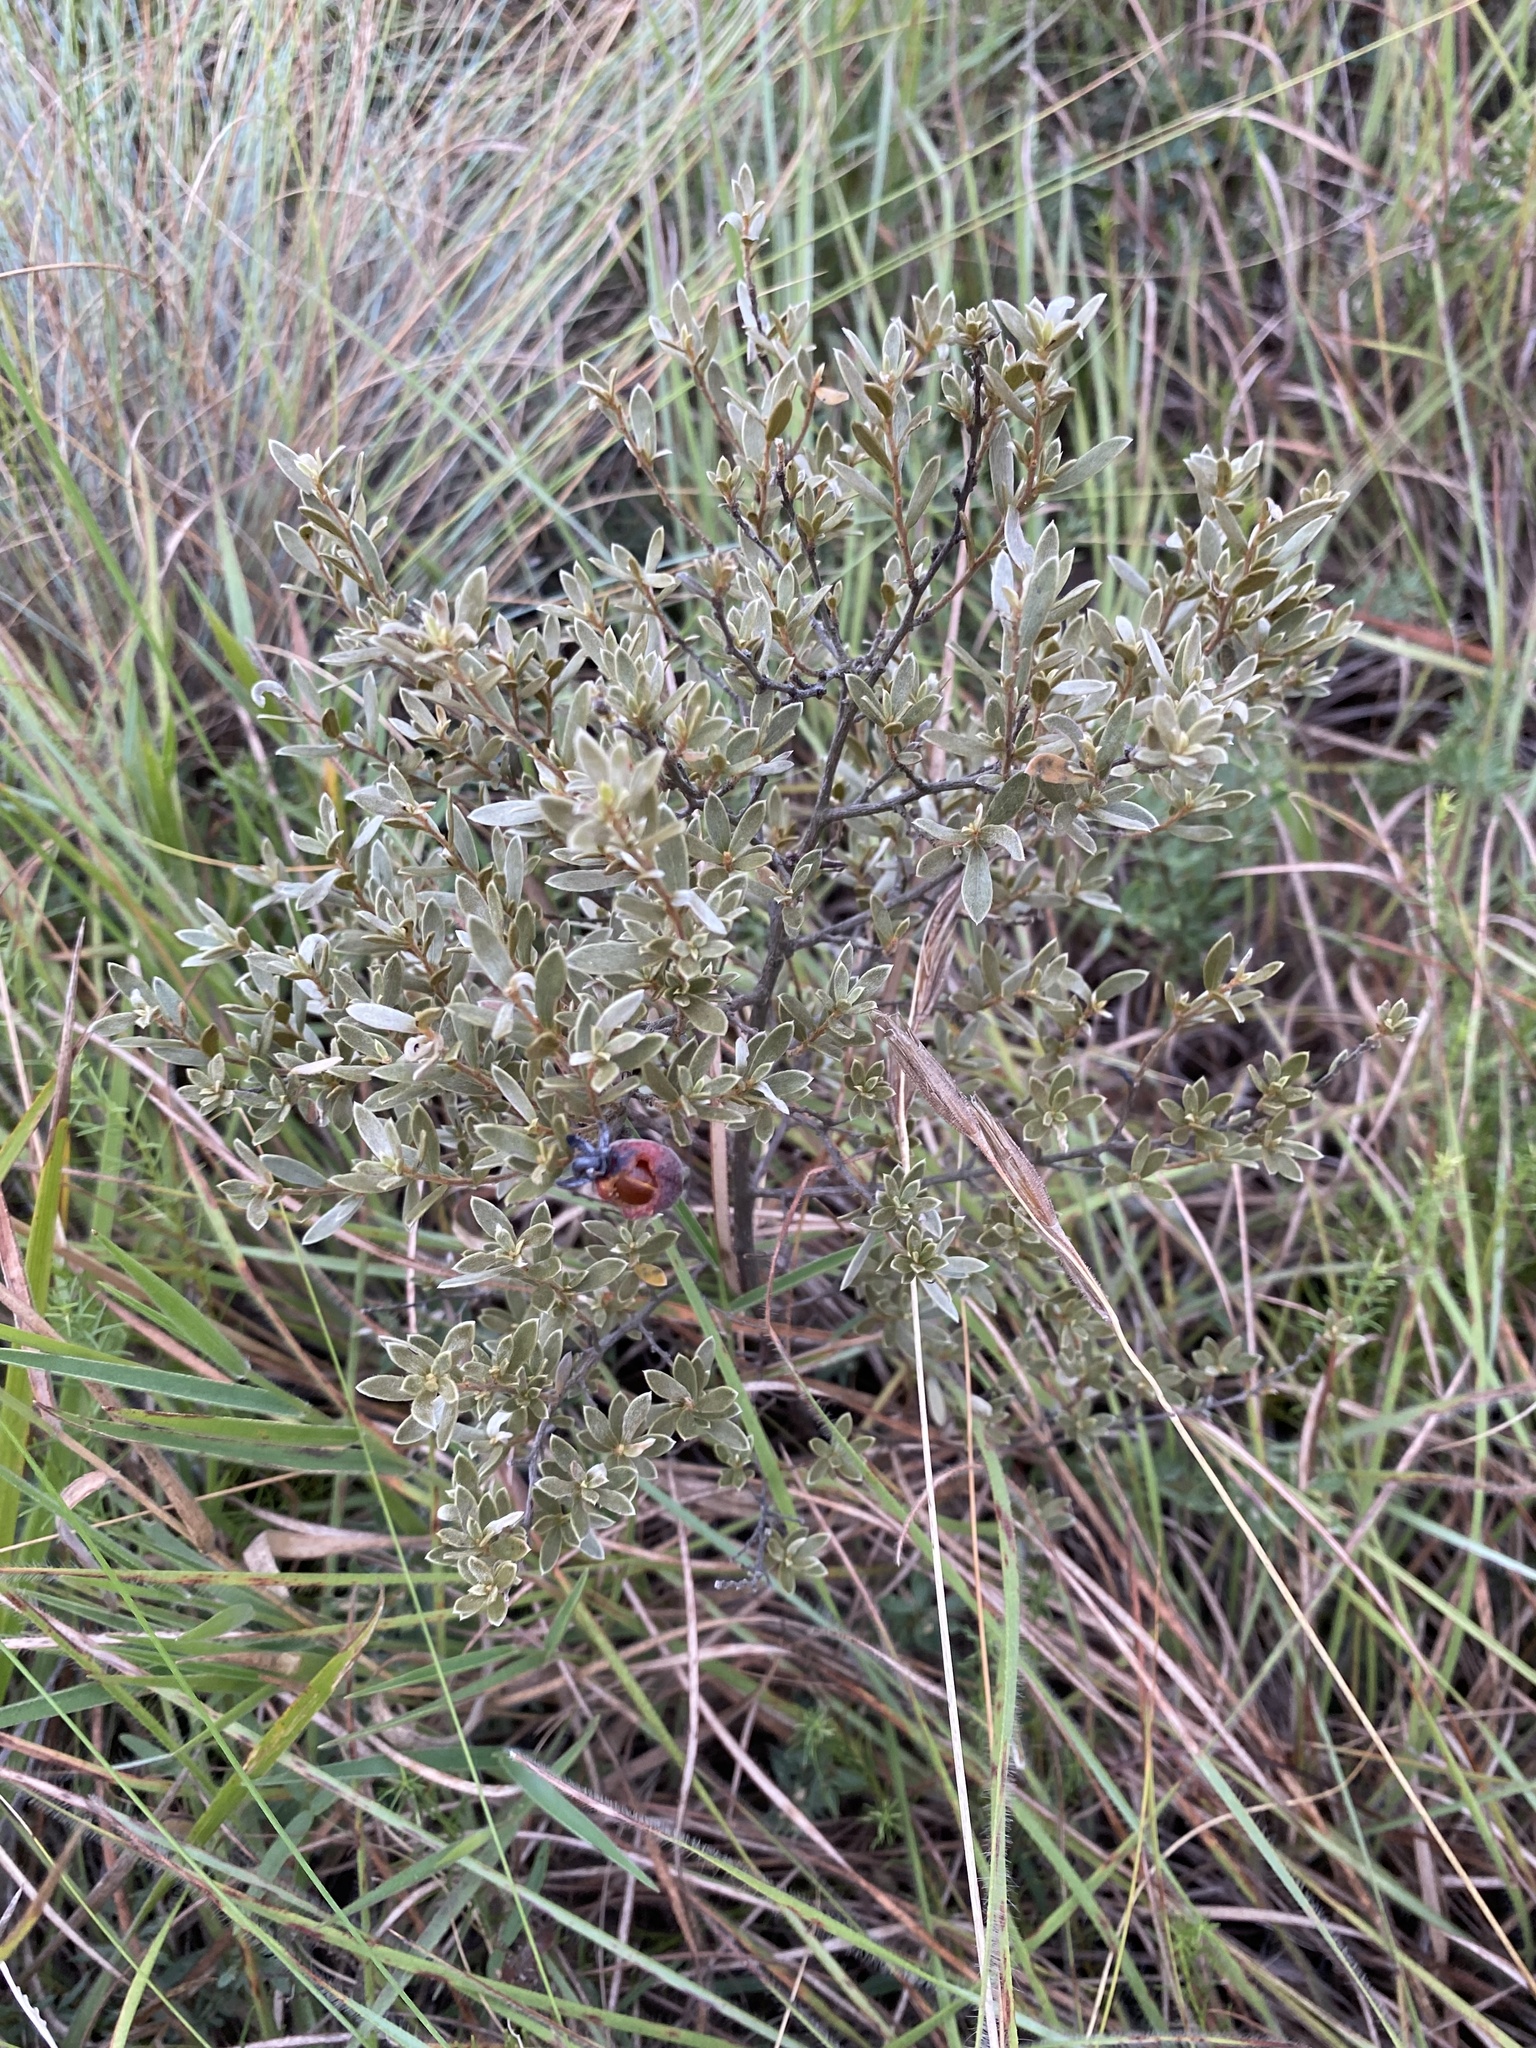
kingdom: Plantae
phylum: Tracheophyta
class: Magnoliopsida
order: Ericales
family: Ebenaceae
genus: Diospyros
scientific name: Diospyros pubescens
